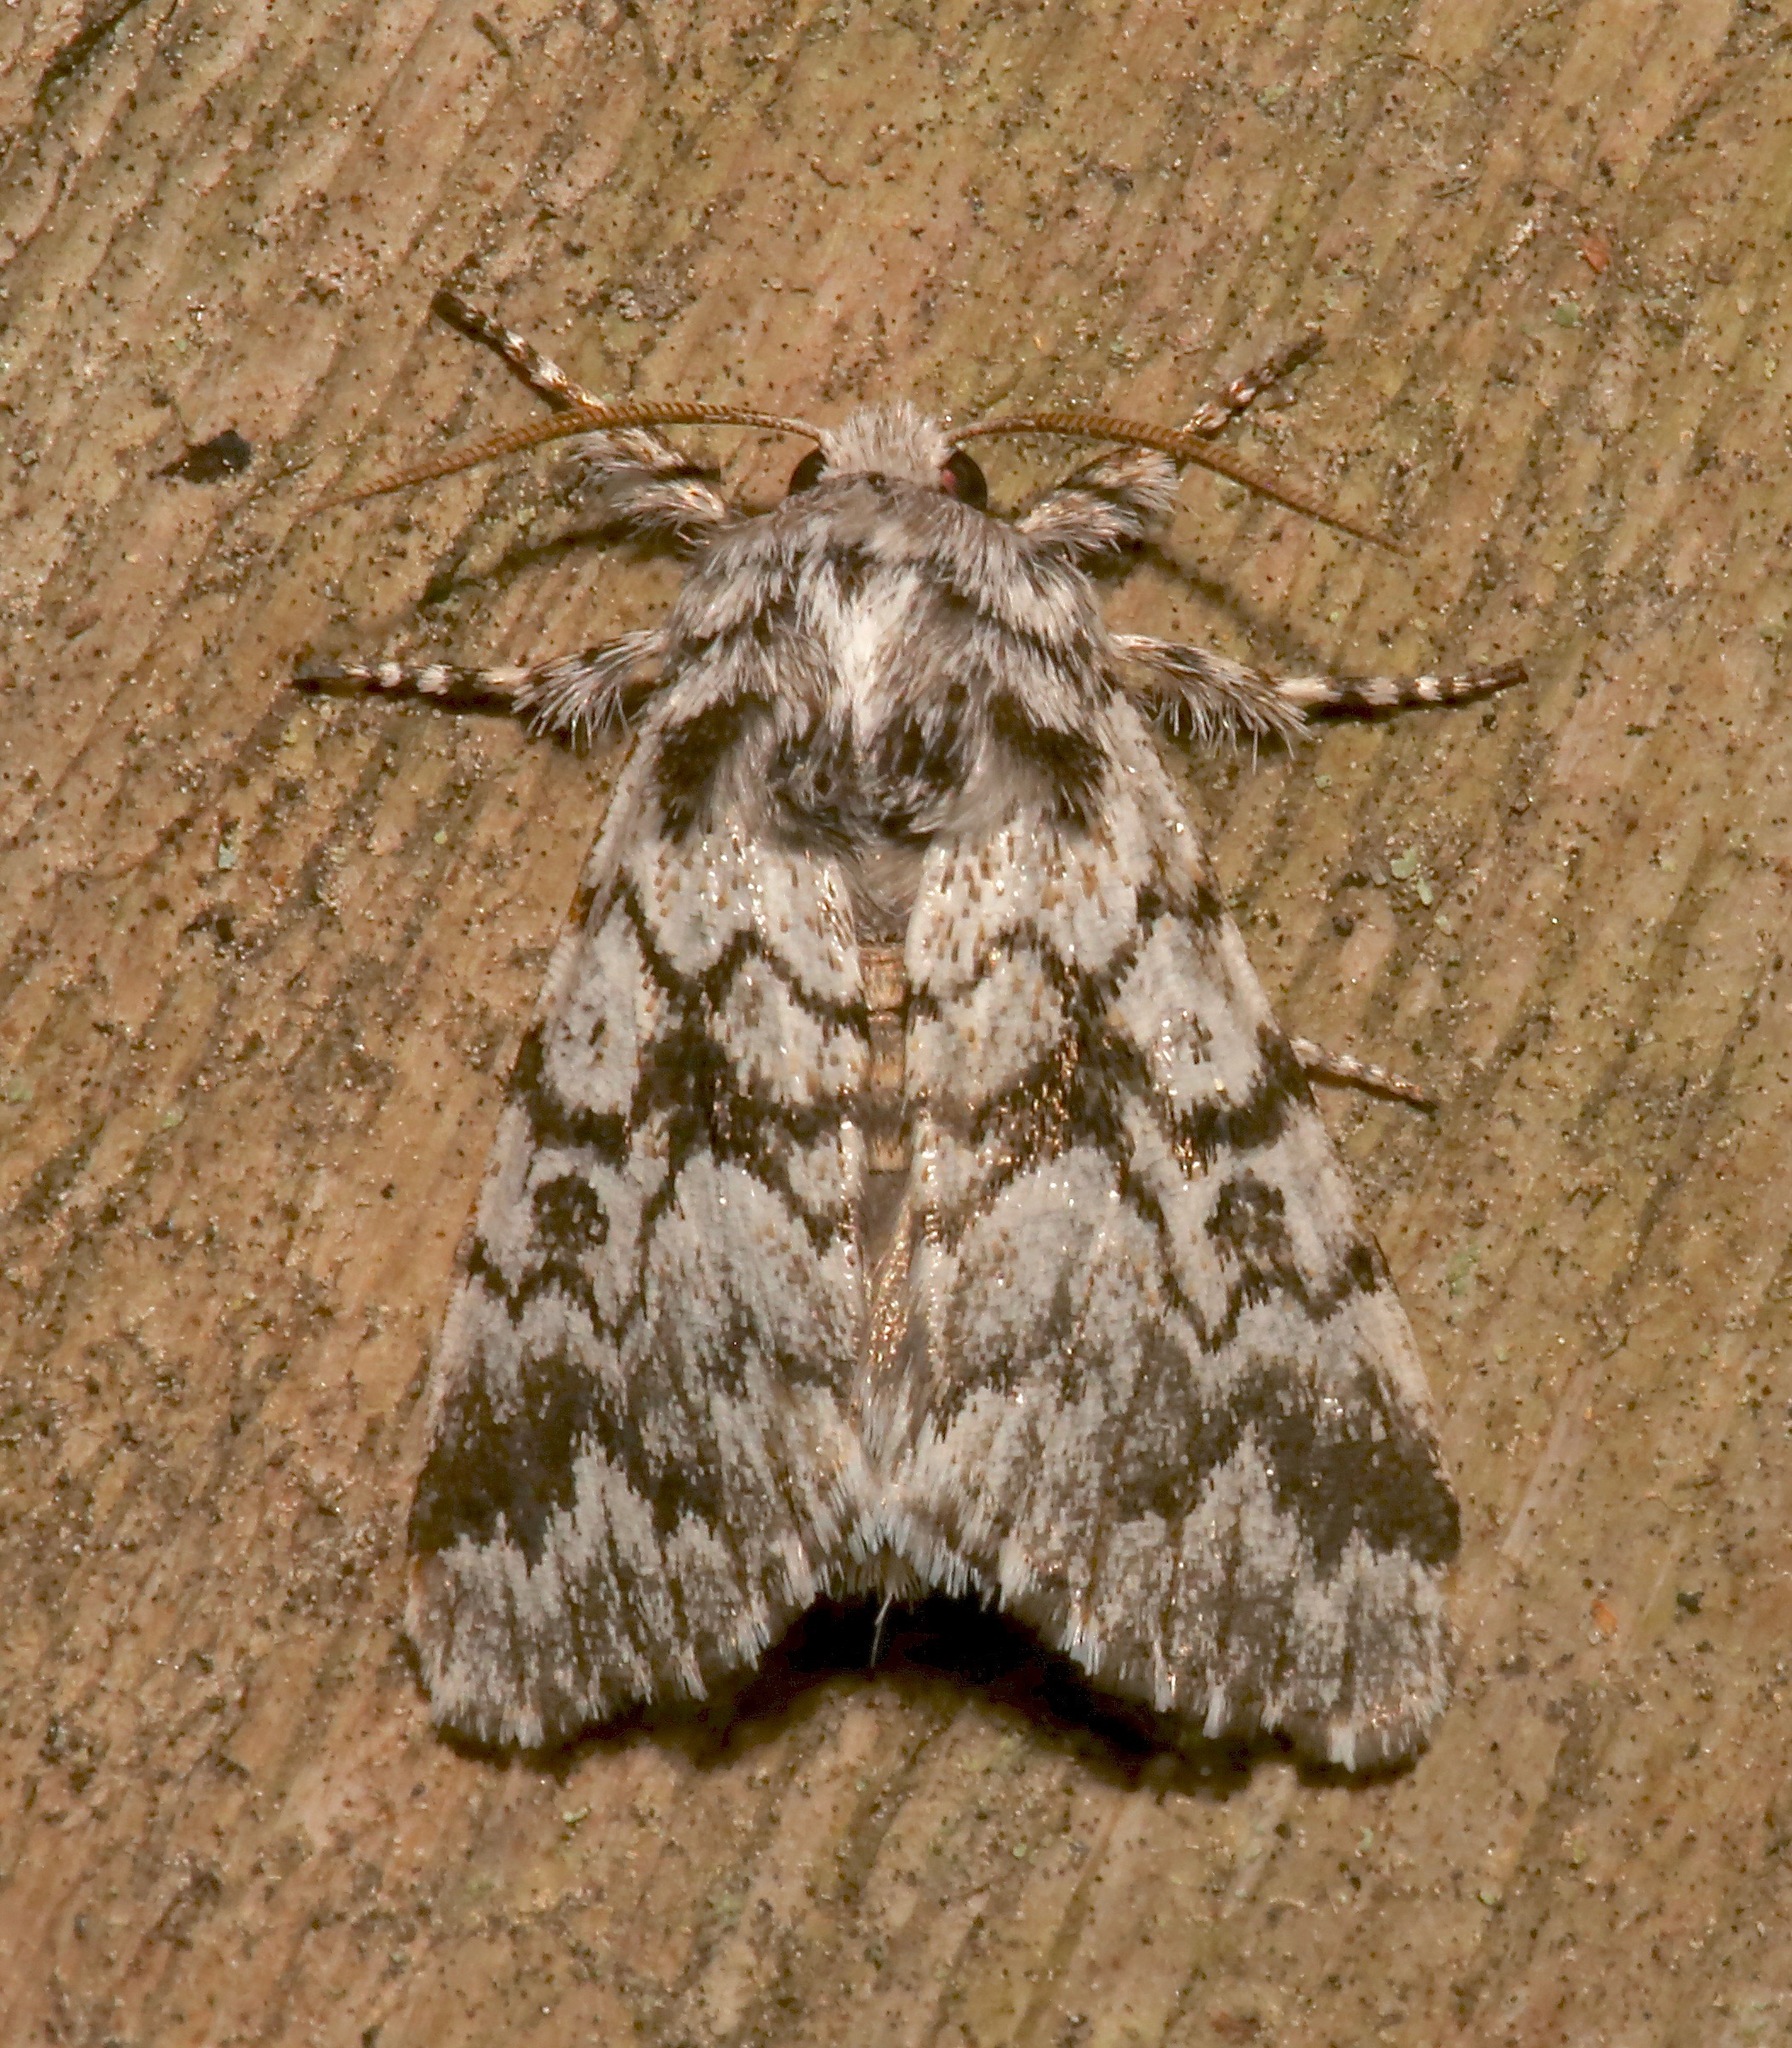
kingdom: Animalia
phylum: Arthropoda
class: Insecta
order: Lepidoptera
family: Noctuidae
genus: Panthea
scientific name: Panthea acronyctoides
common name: Black zigzag moth
